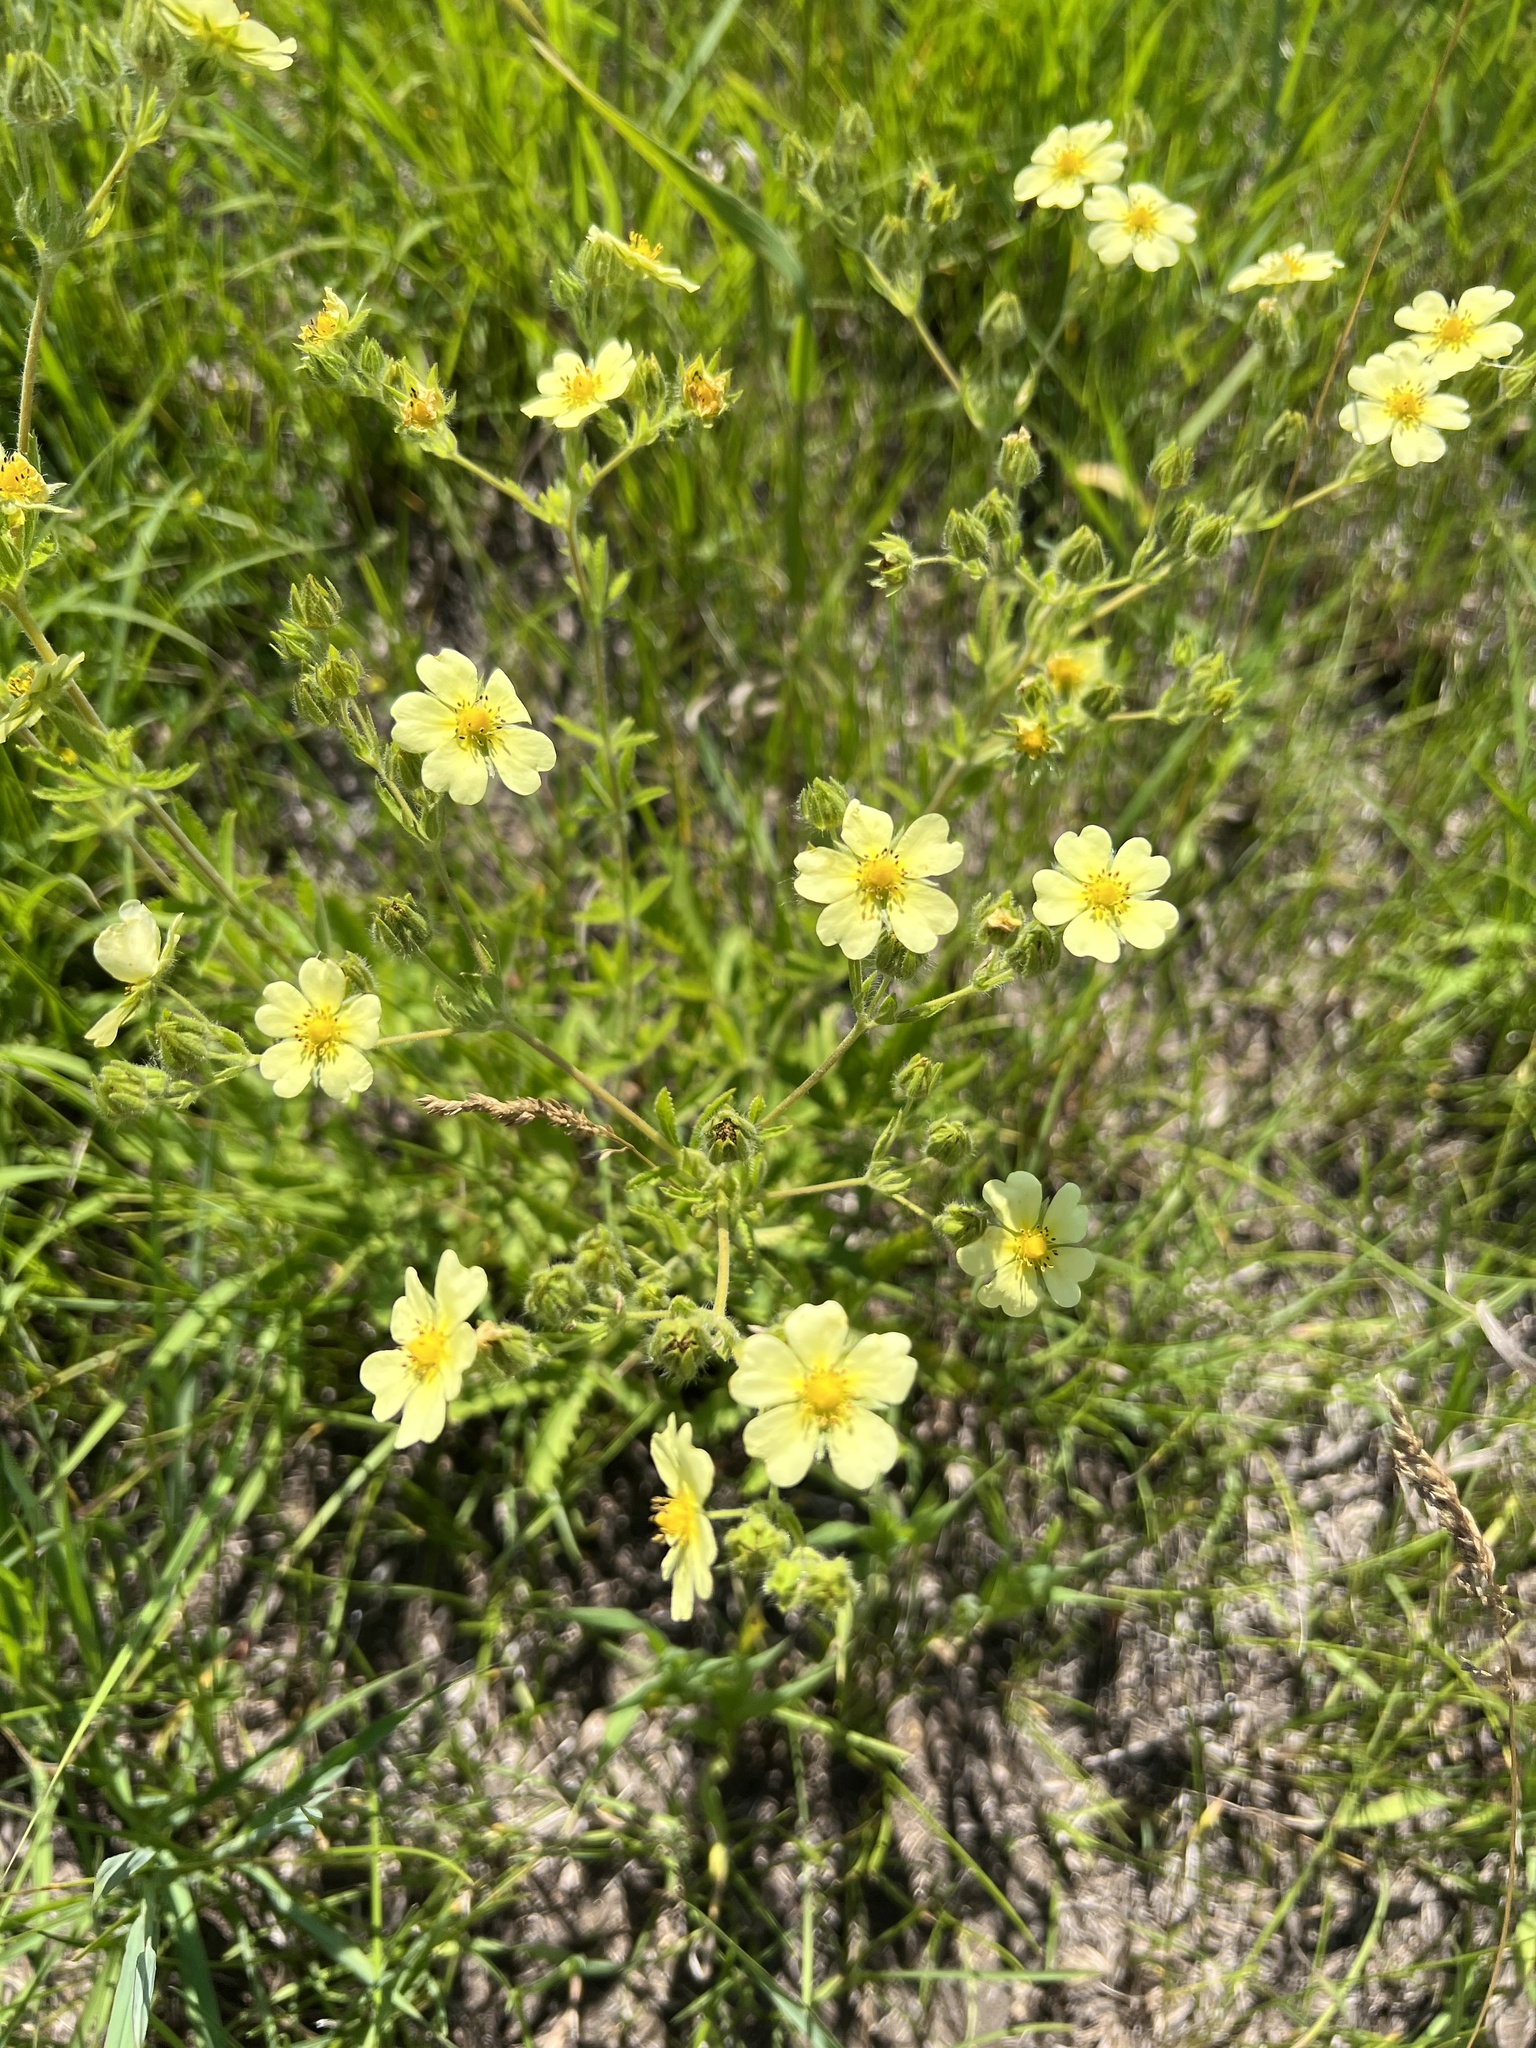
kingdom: Plantae
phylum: Tracheophyta
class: Magnoliopsida
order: Rosales
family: Rosaceae
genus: Potentilla
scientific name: Potentilla recta
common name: Sulphur cinquefoil
